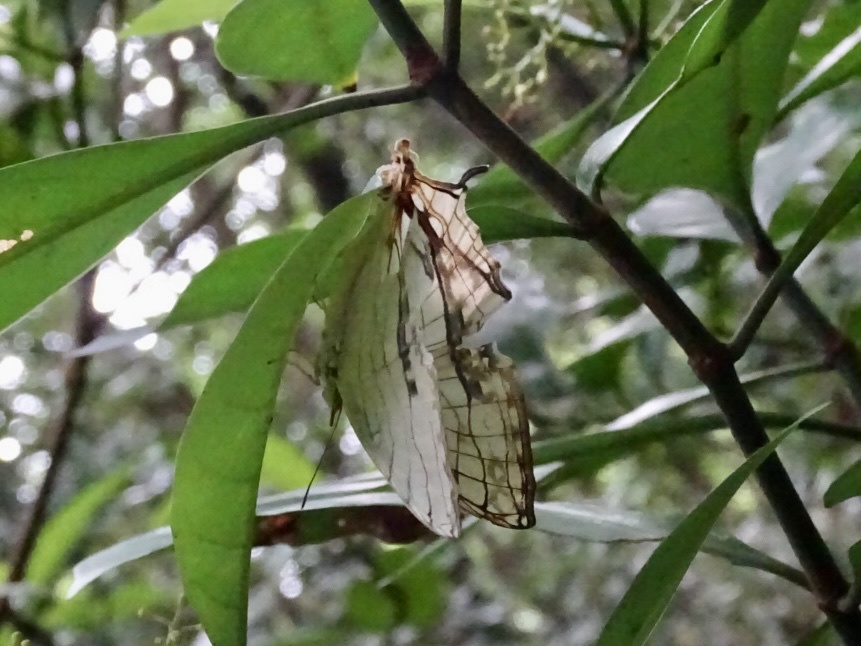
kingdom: Animalia
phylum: Arthropoda
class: Insecta
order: Lepidoptera
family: Nymphalidae
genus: Cyrestis
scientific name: Cyrestis thyodamas
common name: Common mapwing
